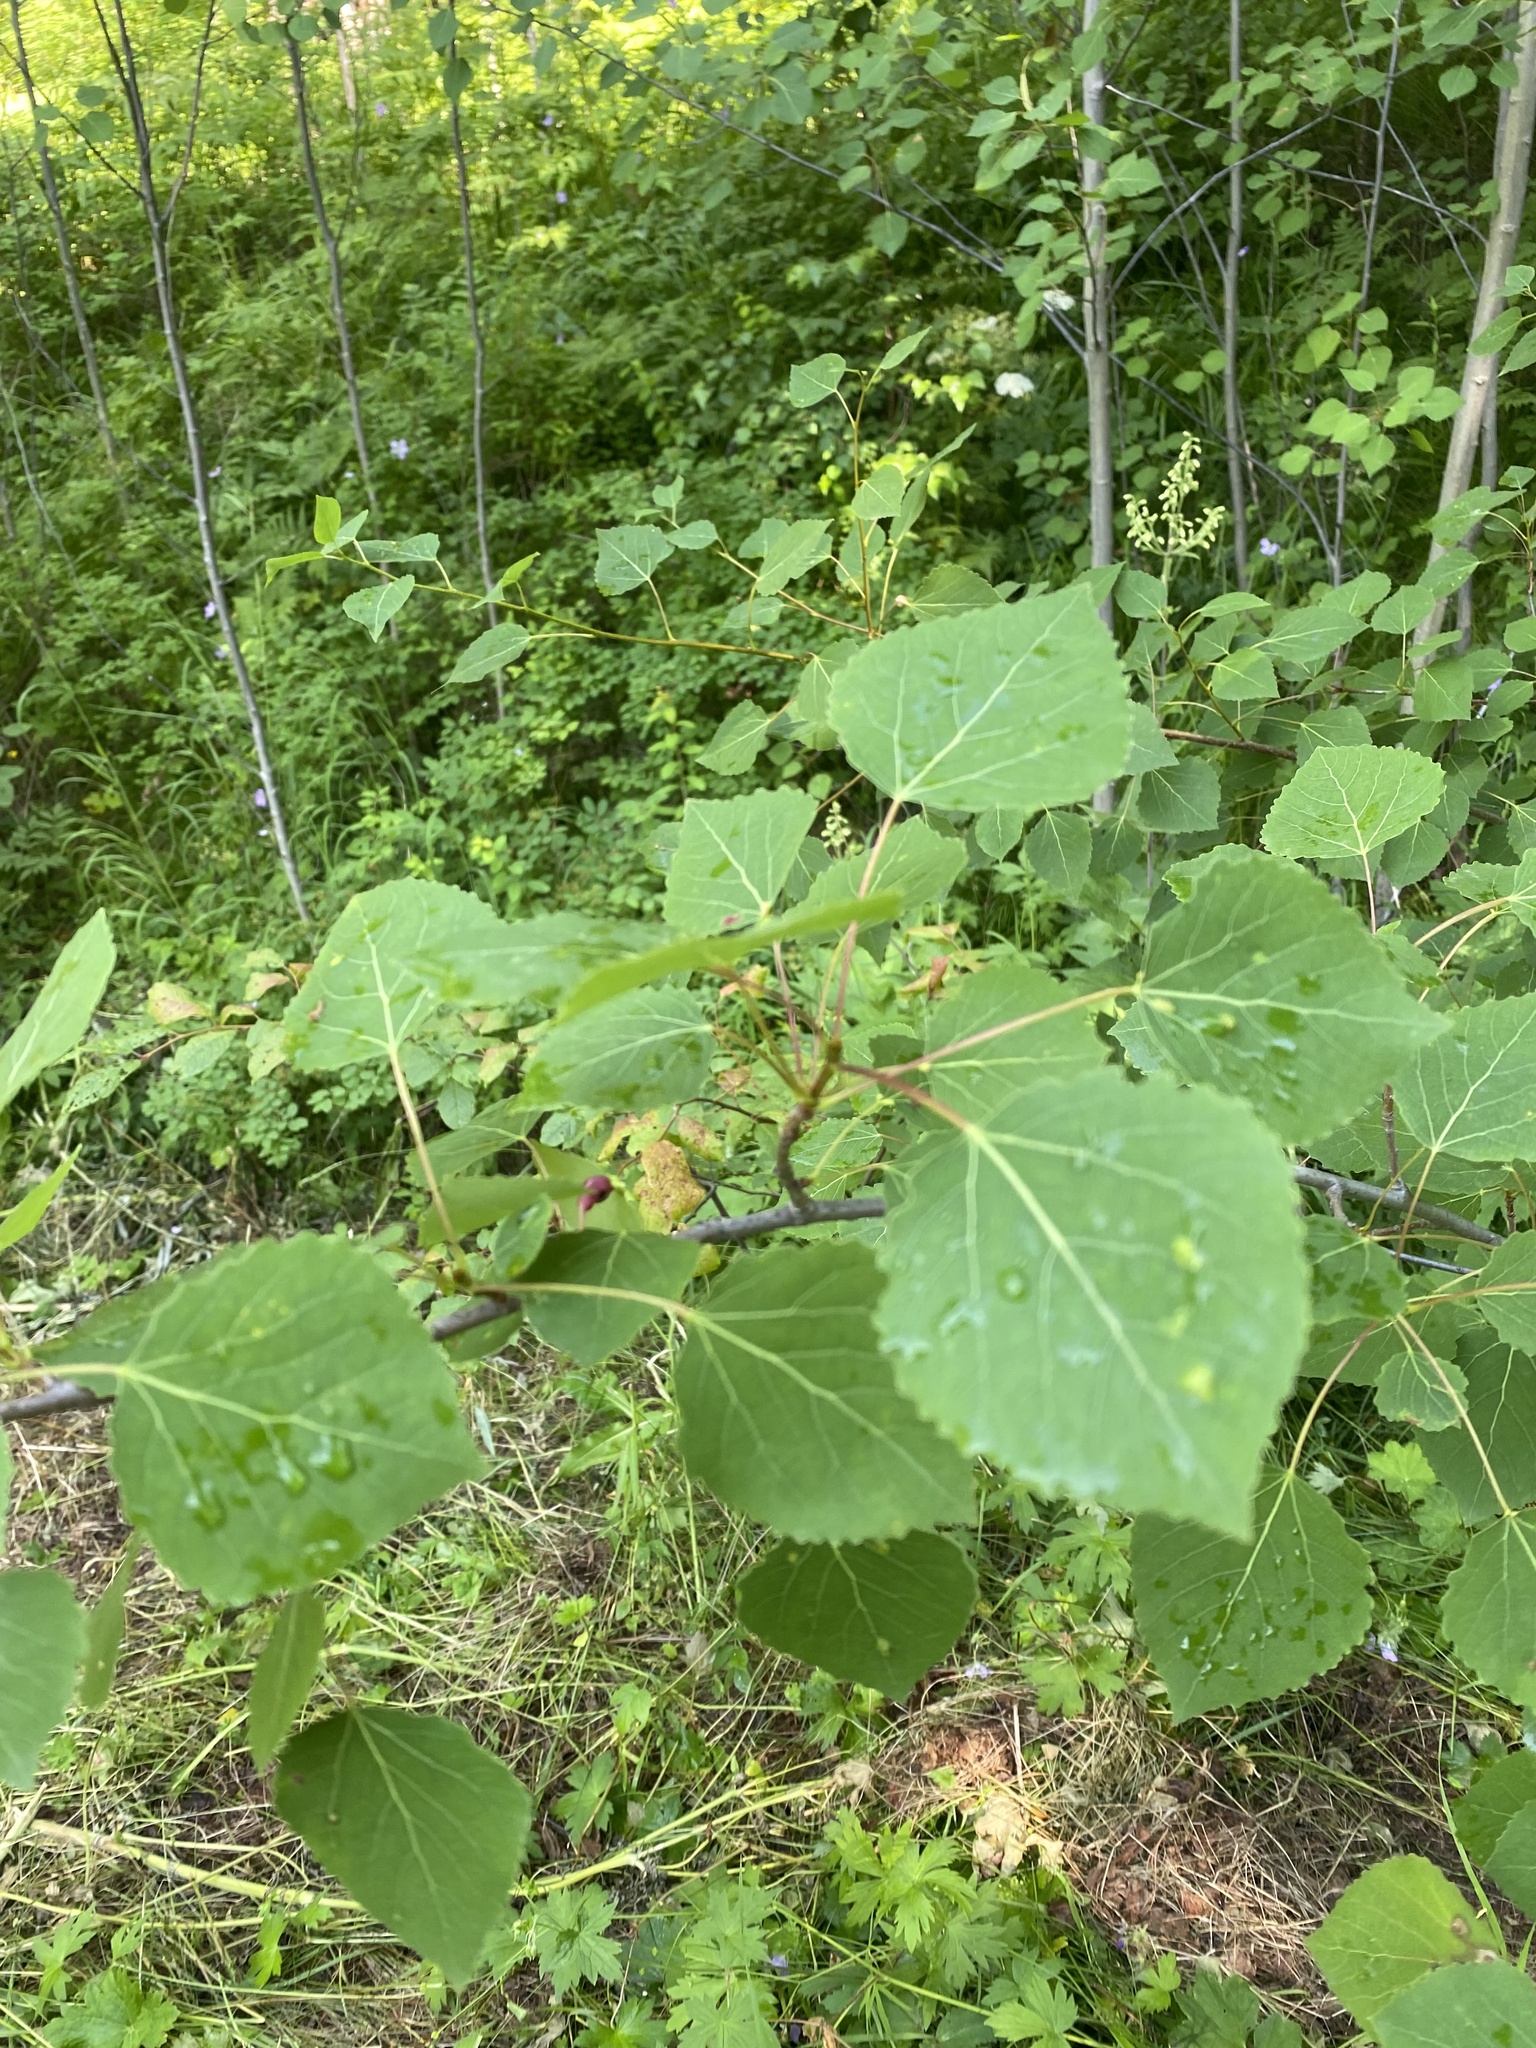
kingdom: Plantae
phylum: Tracheophyta
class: Magnoliopsida
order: Malpighiales
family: Salicaceae
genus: Populus
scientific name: Populus tremula
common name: European aspen
